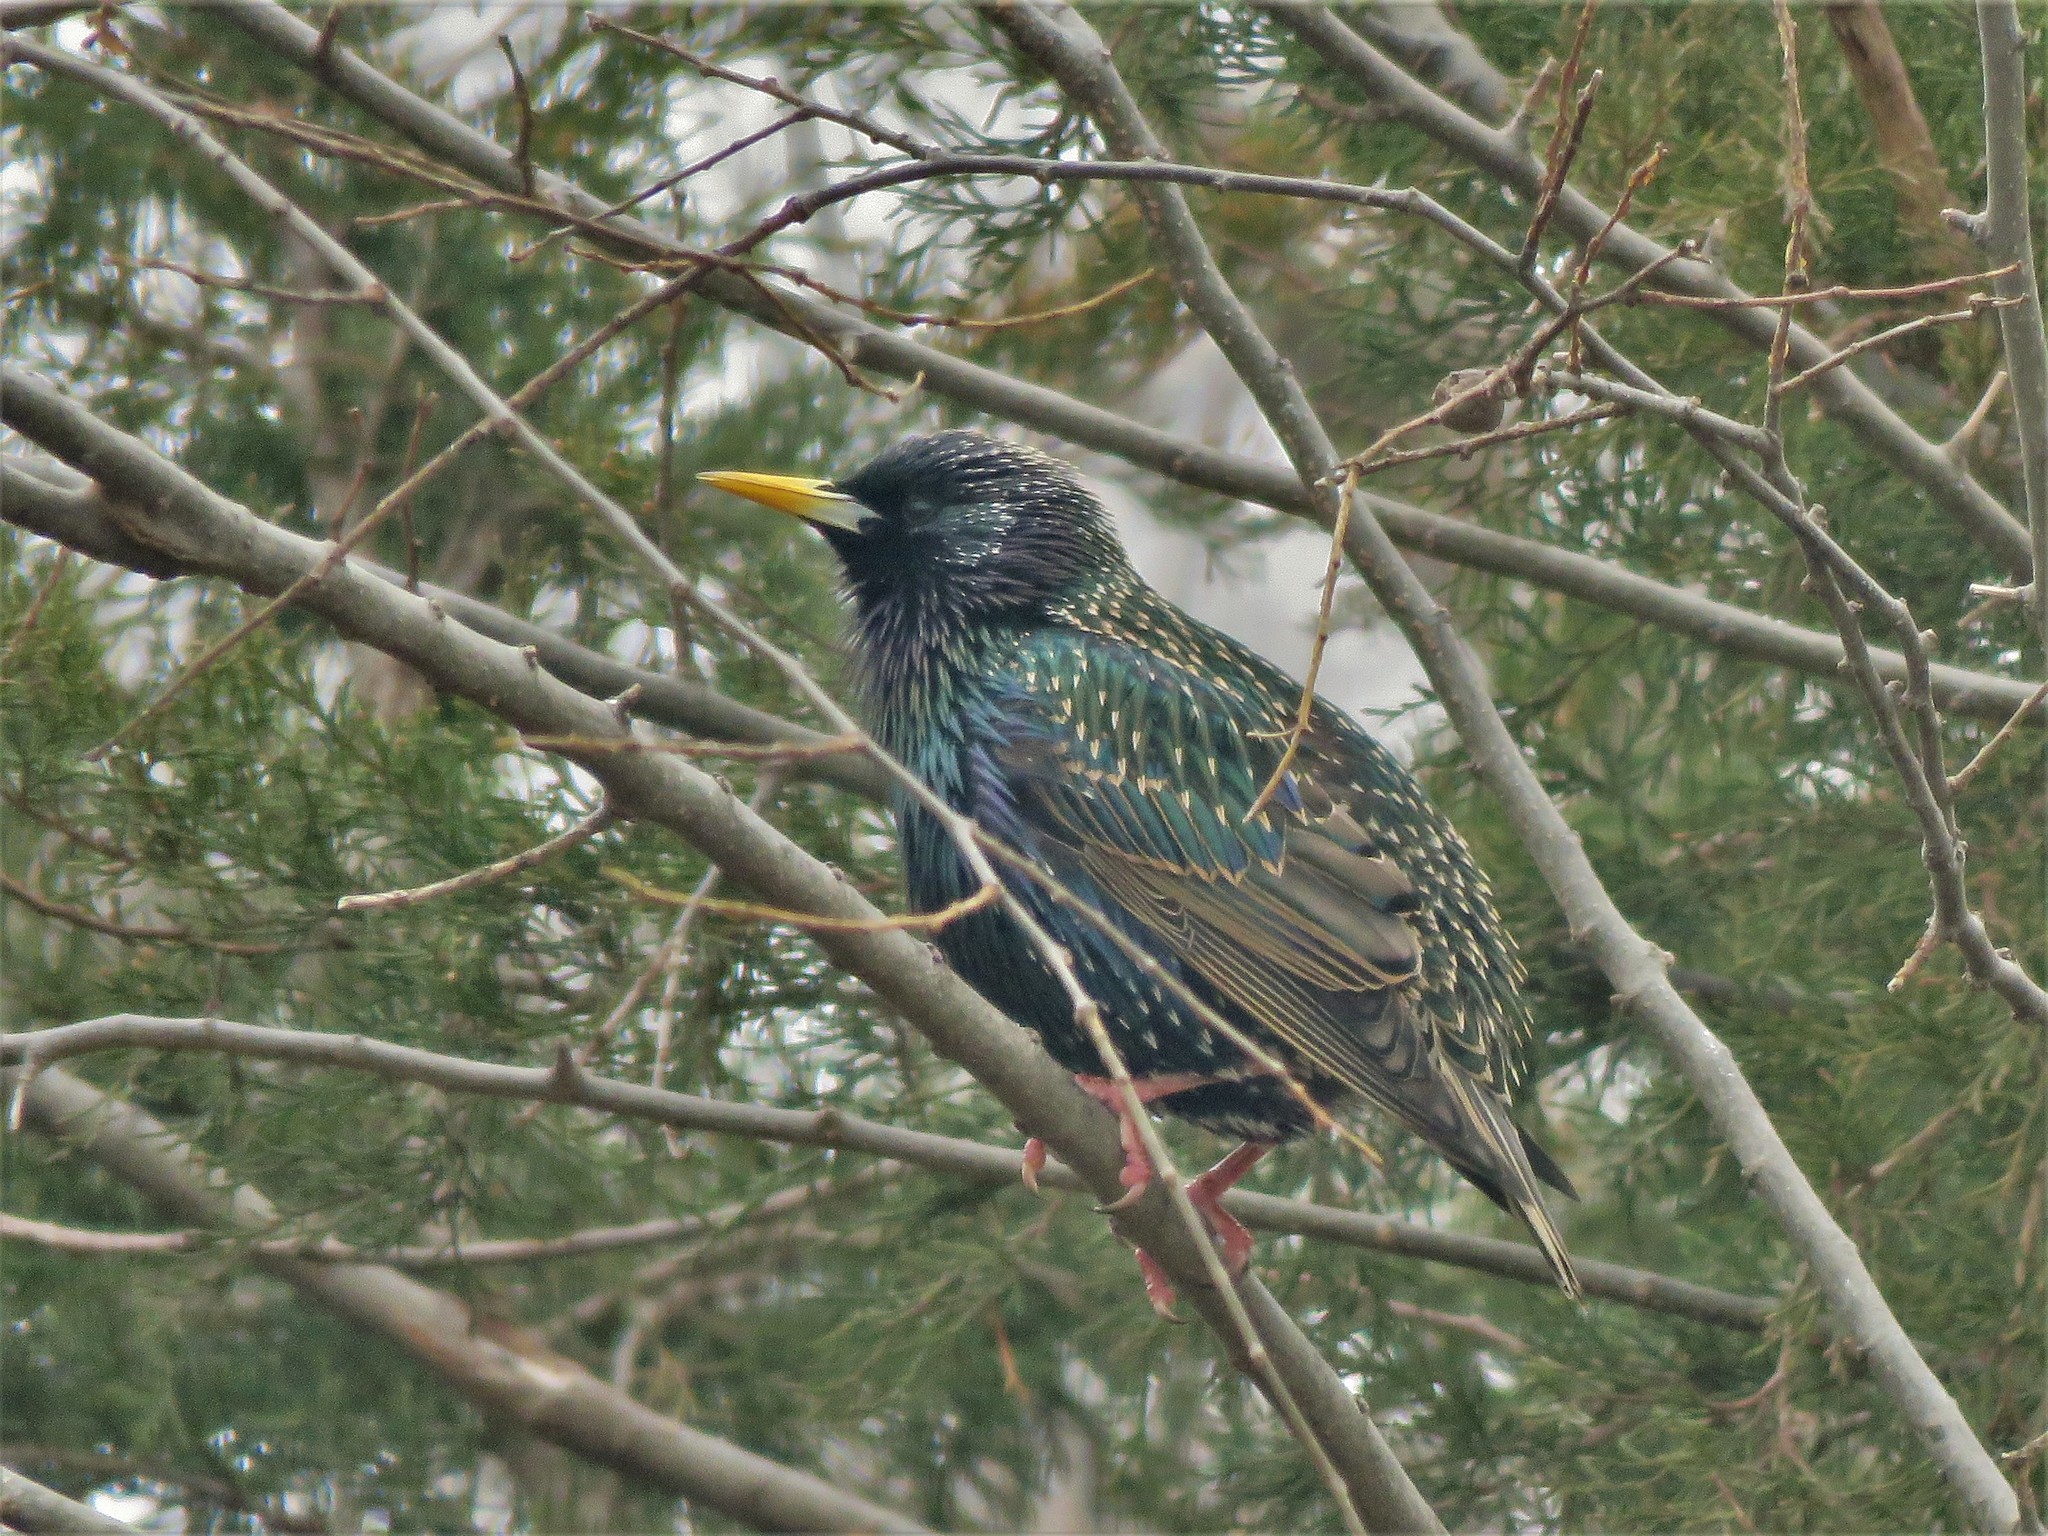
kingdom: Animalia
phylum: Chordata
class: Aves
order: Passeriformes
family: Sturnidae
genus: Sturnus
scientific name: Sturnus vulgaris
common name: Common starling
